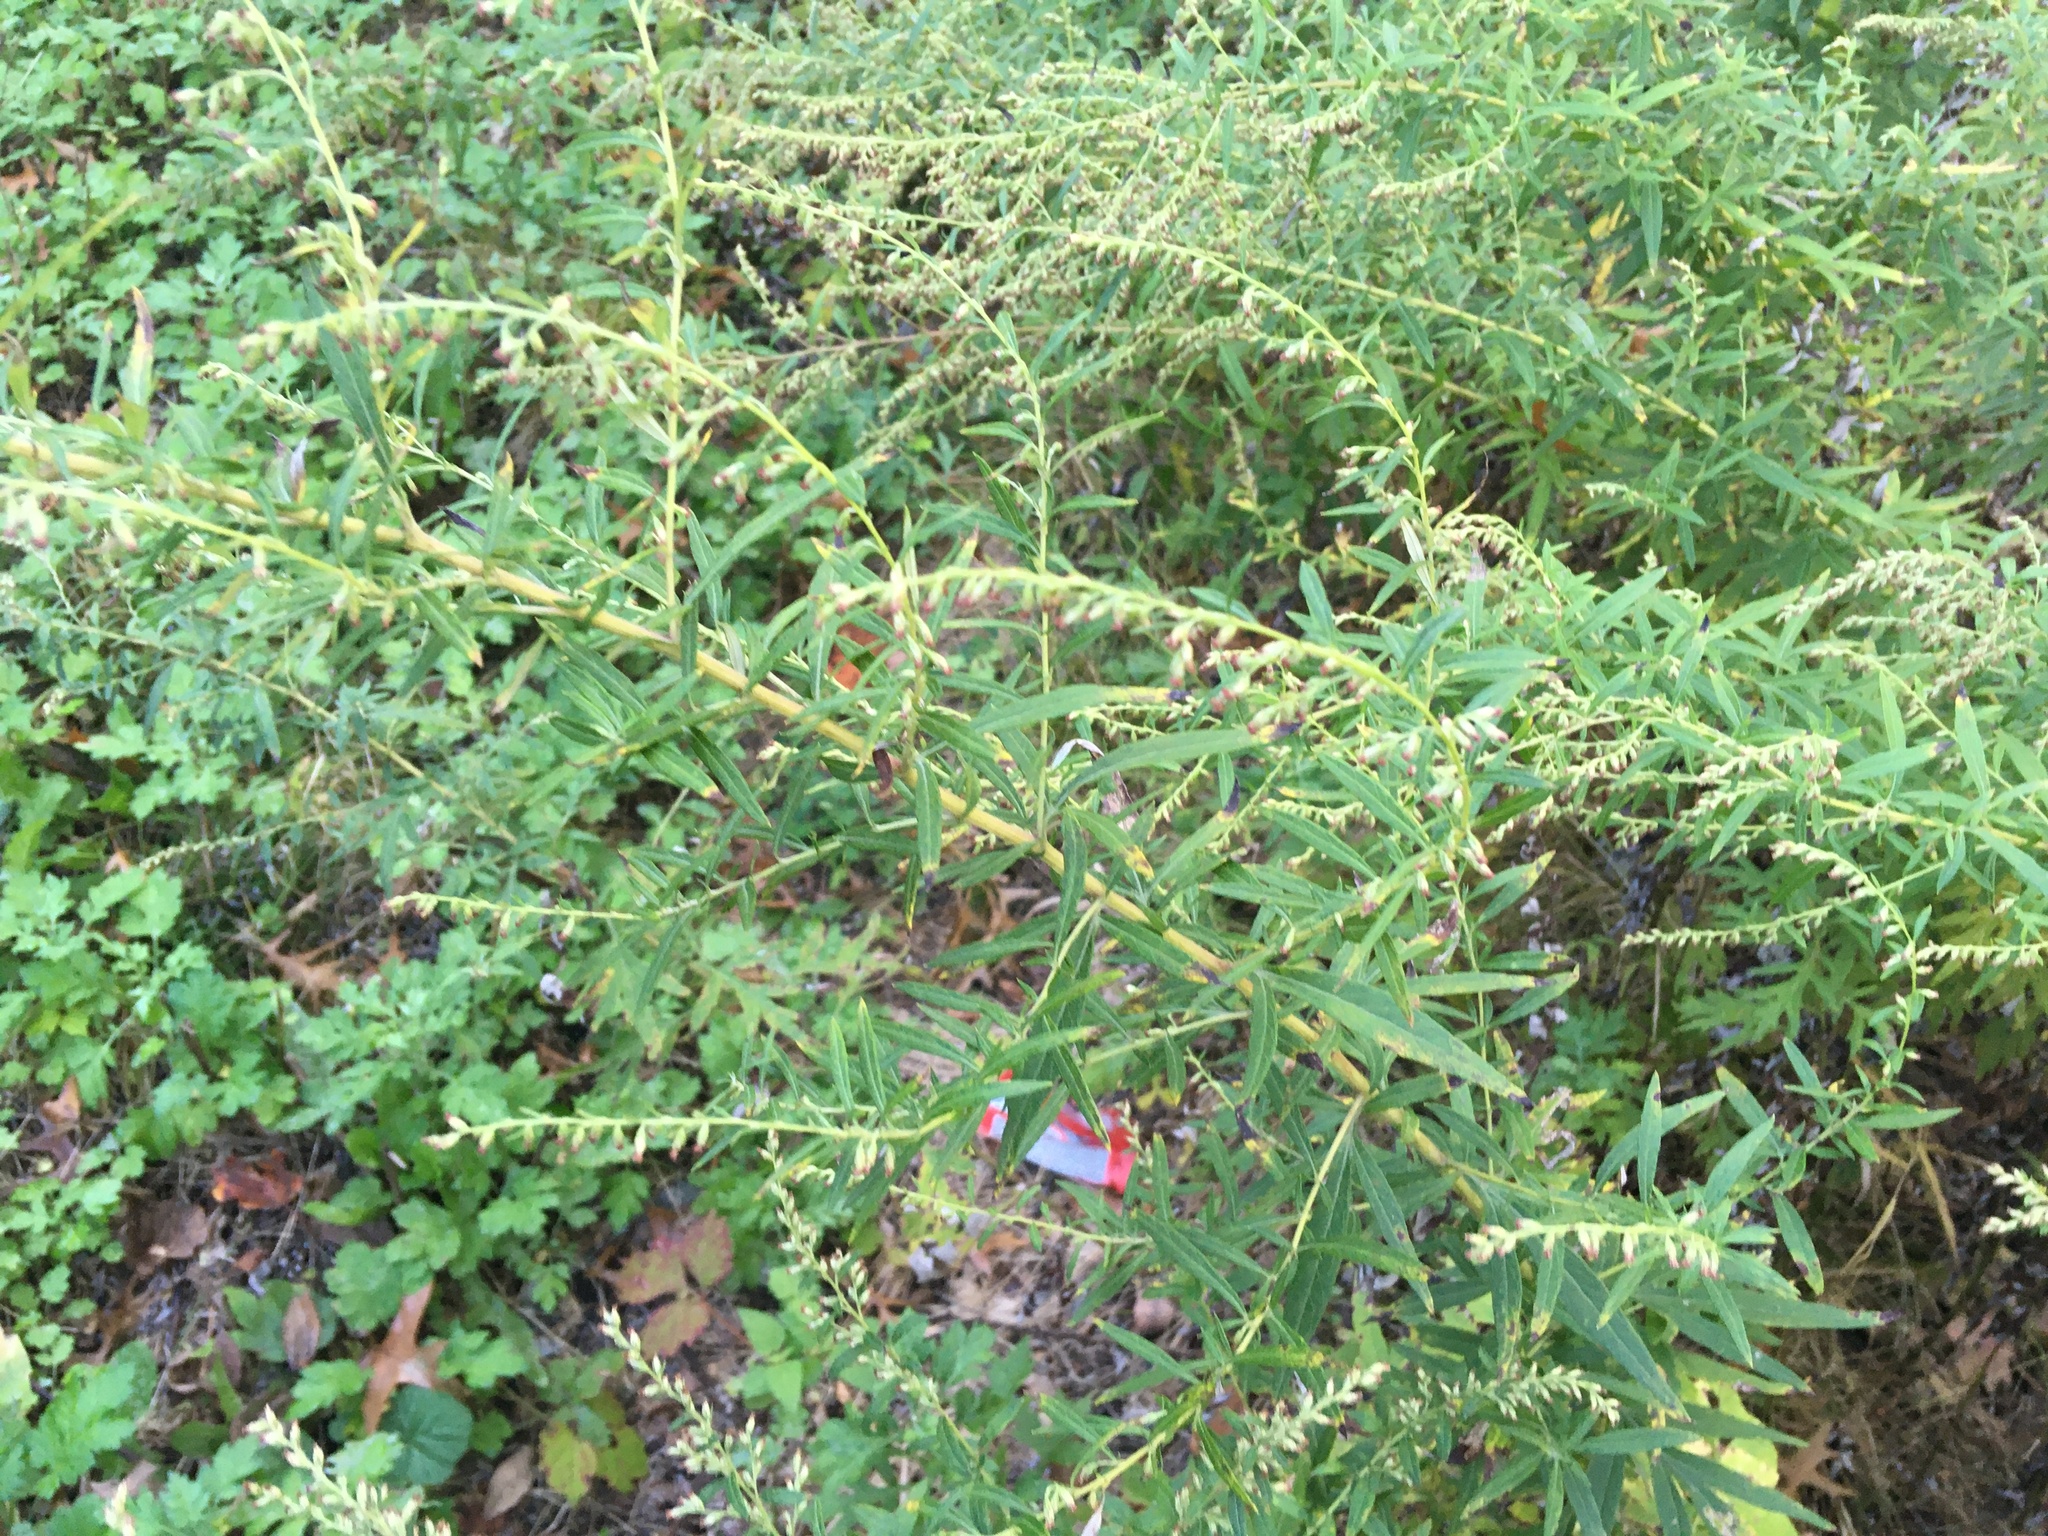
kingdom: Plantae
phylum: Tracheophyta
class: Magnoliopsida
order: Asterales
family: Asteraceae
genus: Artemisia
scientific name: Artemisia vulgaris
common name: Mugwort
